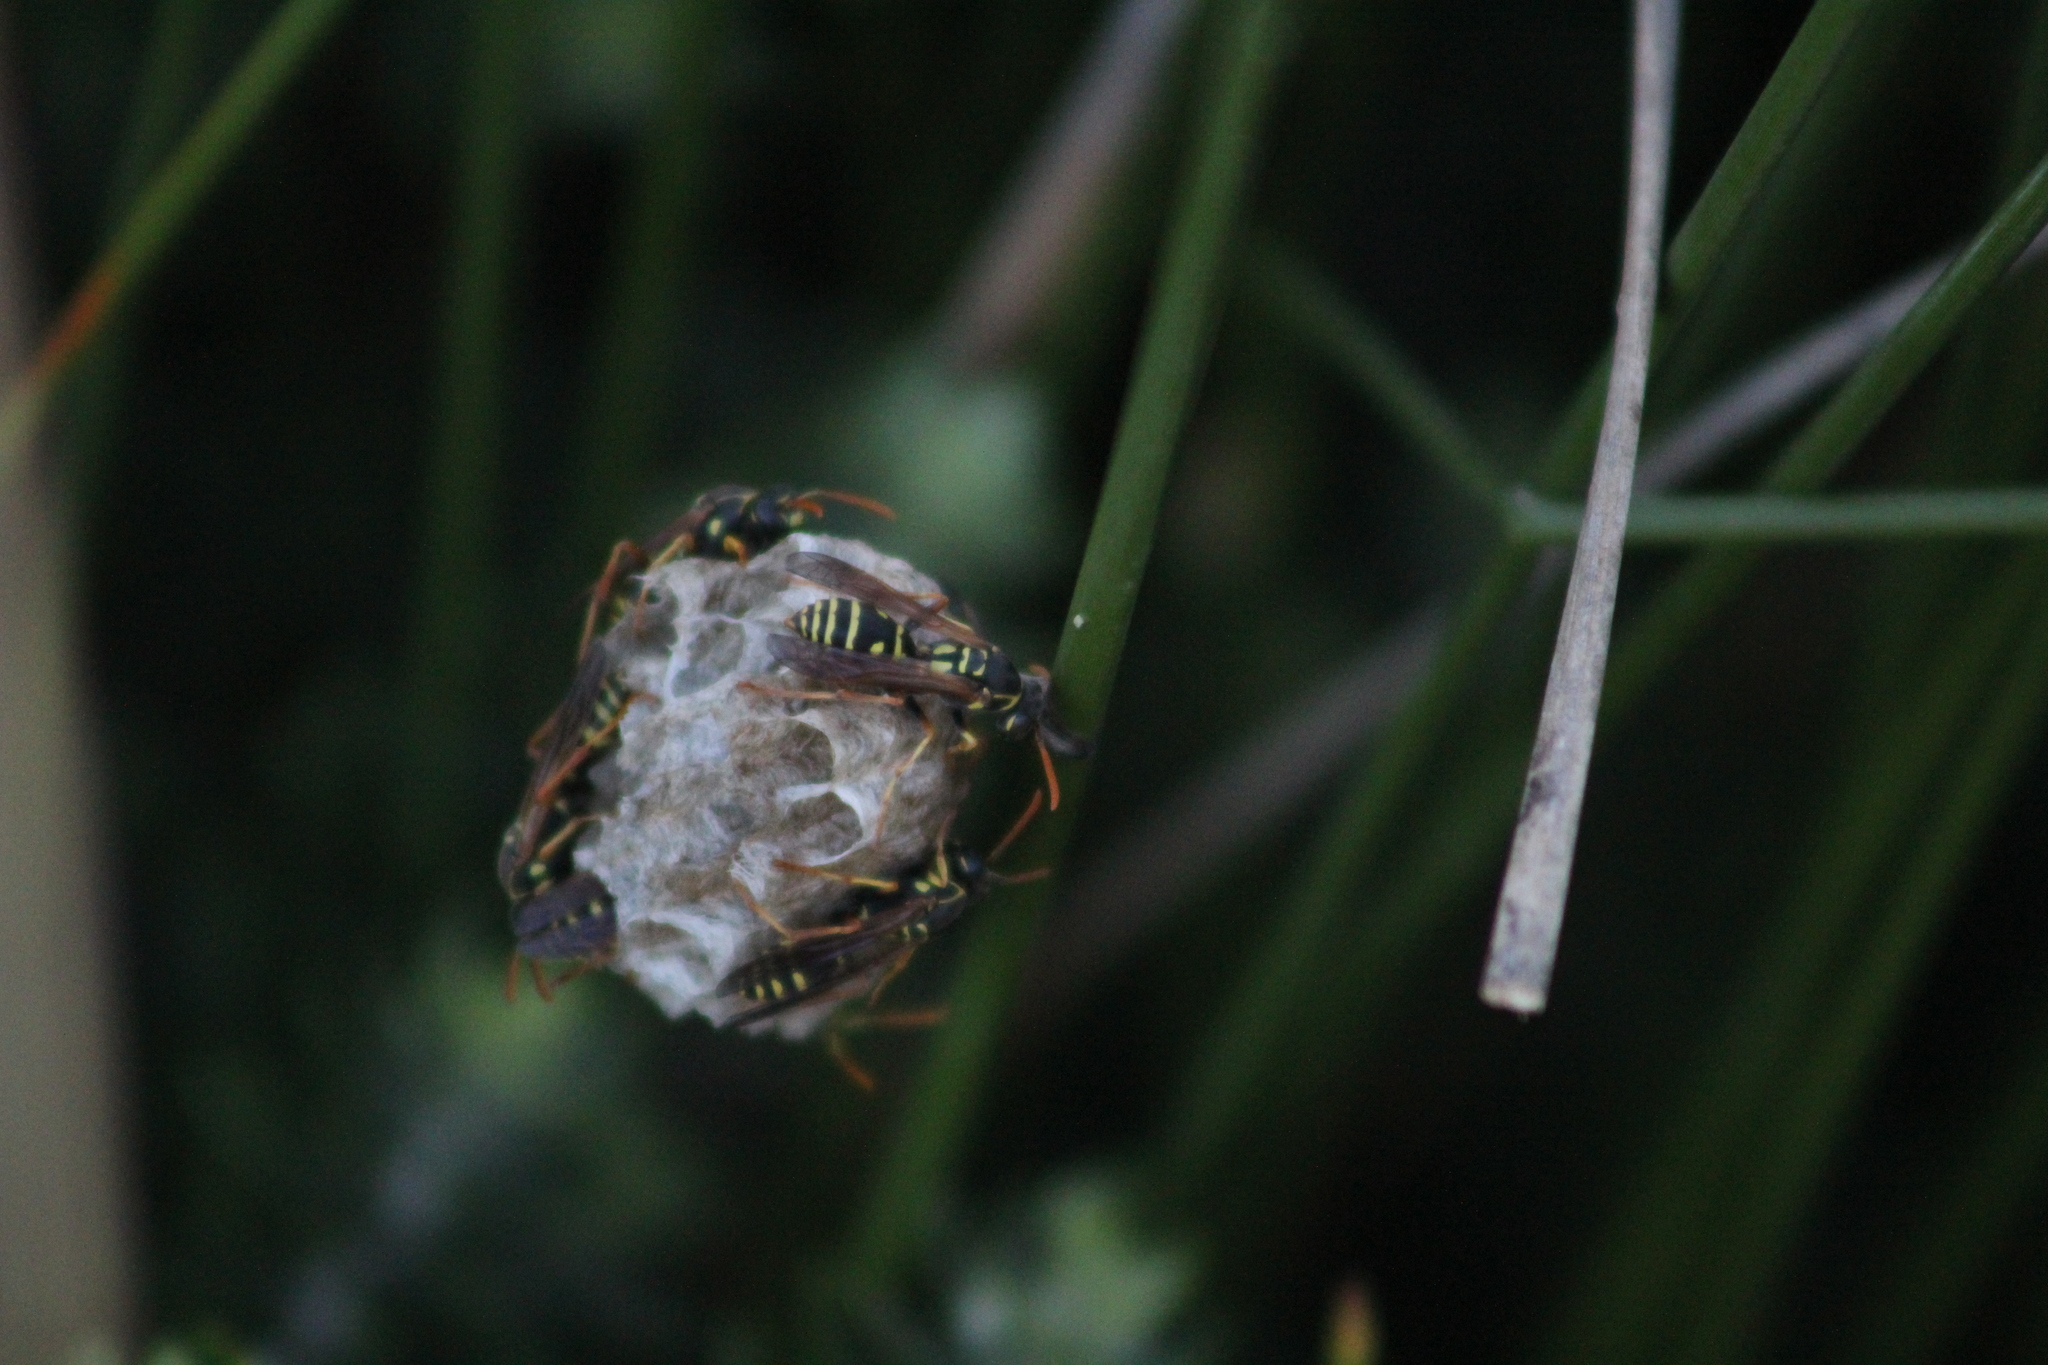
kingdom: Animalia
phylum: Arthropoda
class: Insecta
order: Hymenoptera
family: Eumenidae
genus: Polistes
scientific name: Polistes chinensis
